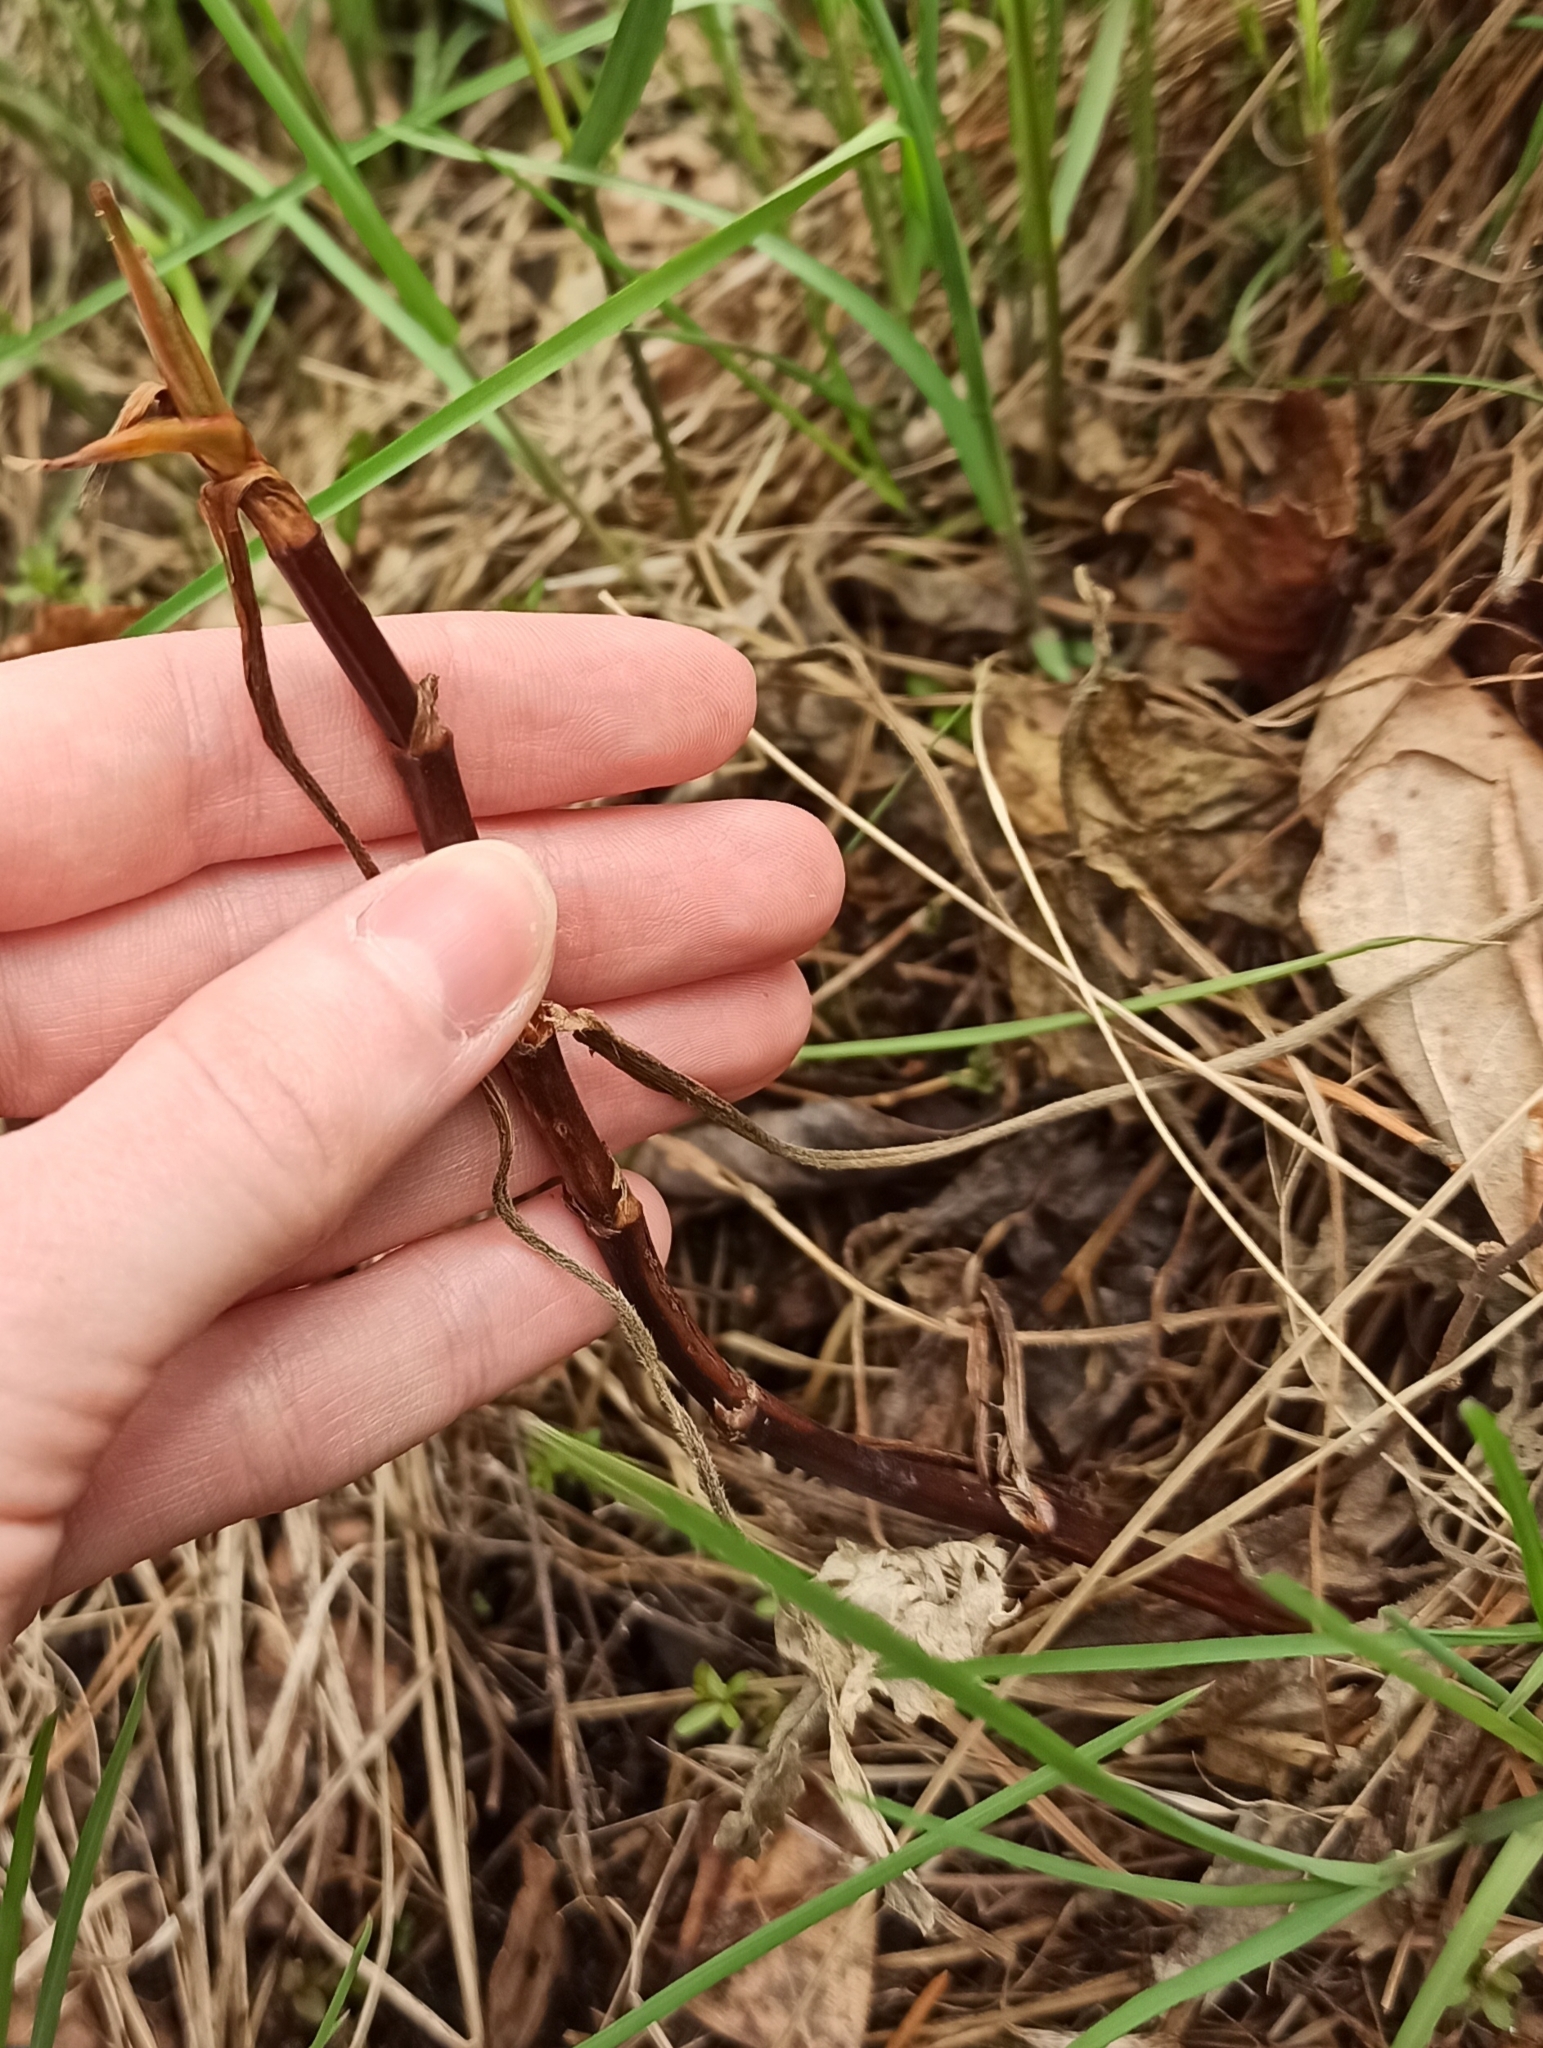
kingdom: Plantae
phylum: Tracheophyta
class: Magnoliopsida
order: Rosales
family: Rosaceae
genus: Comarum
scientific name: Comarum palustre
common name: Marsh cinquefoil
